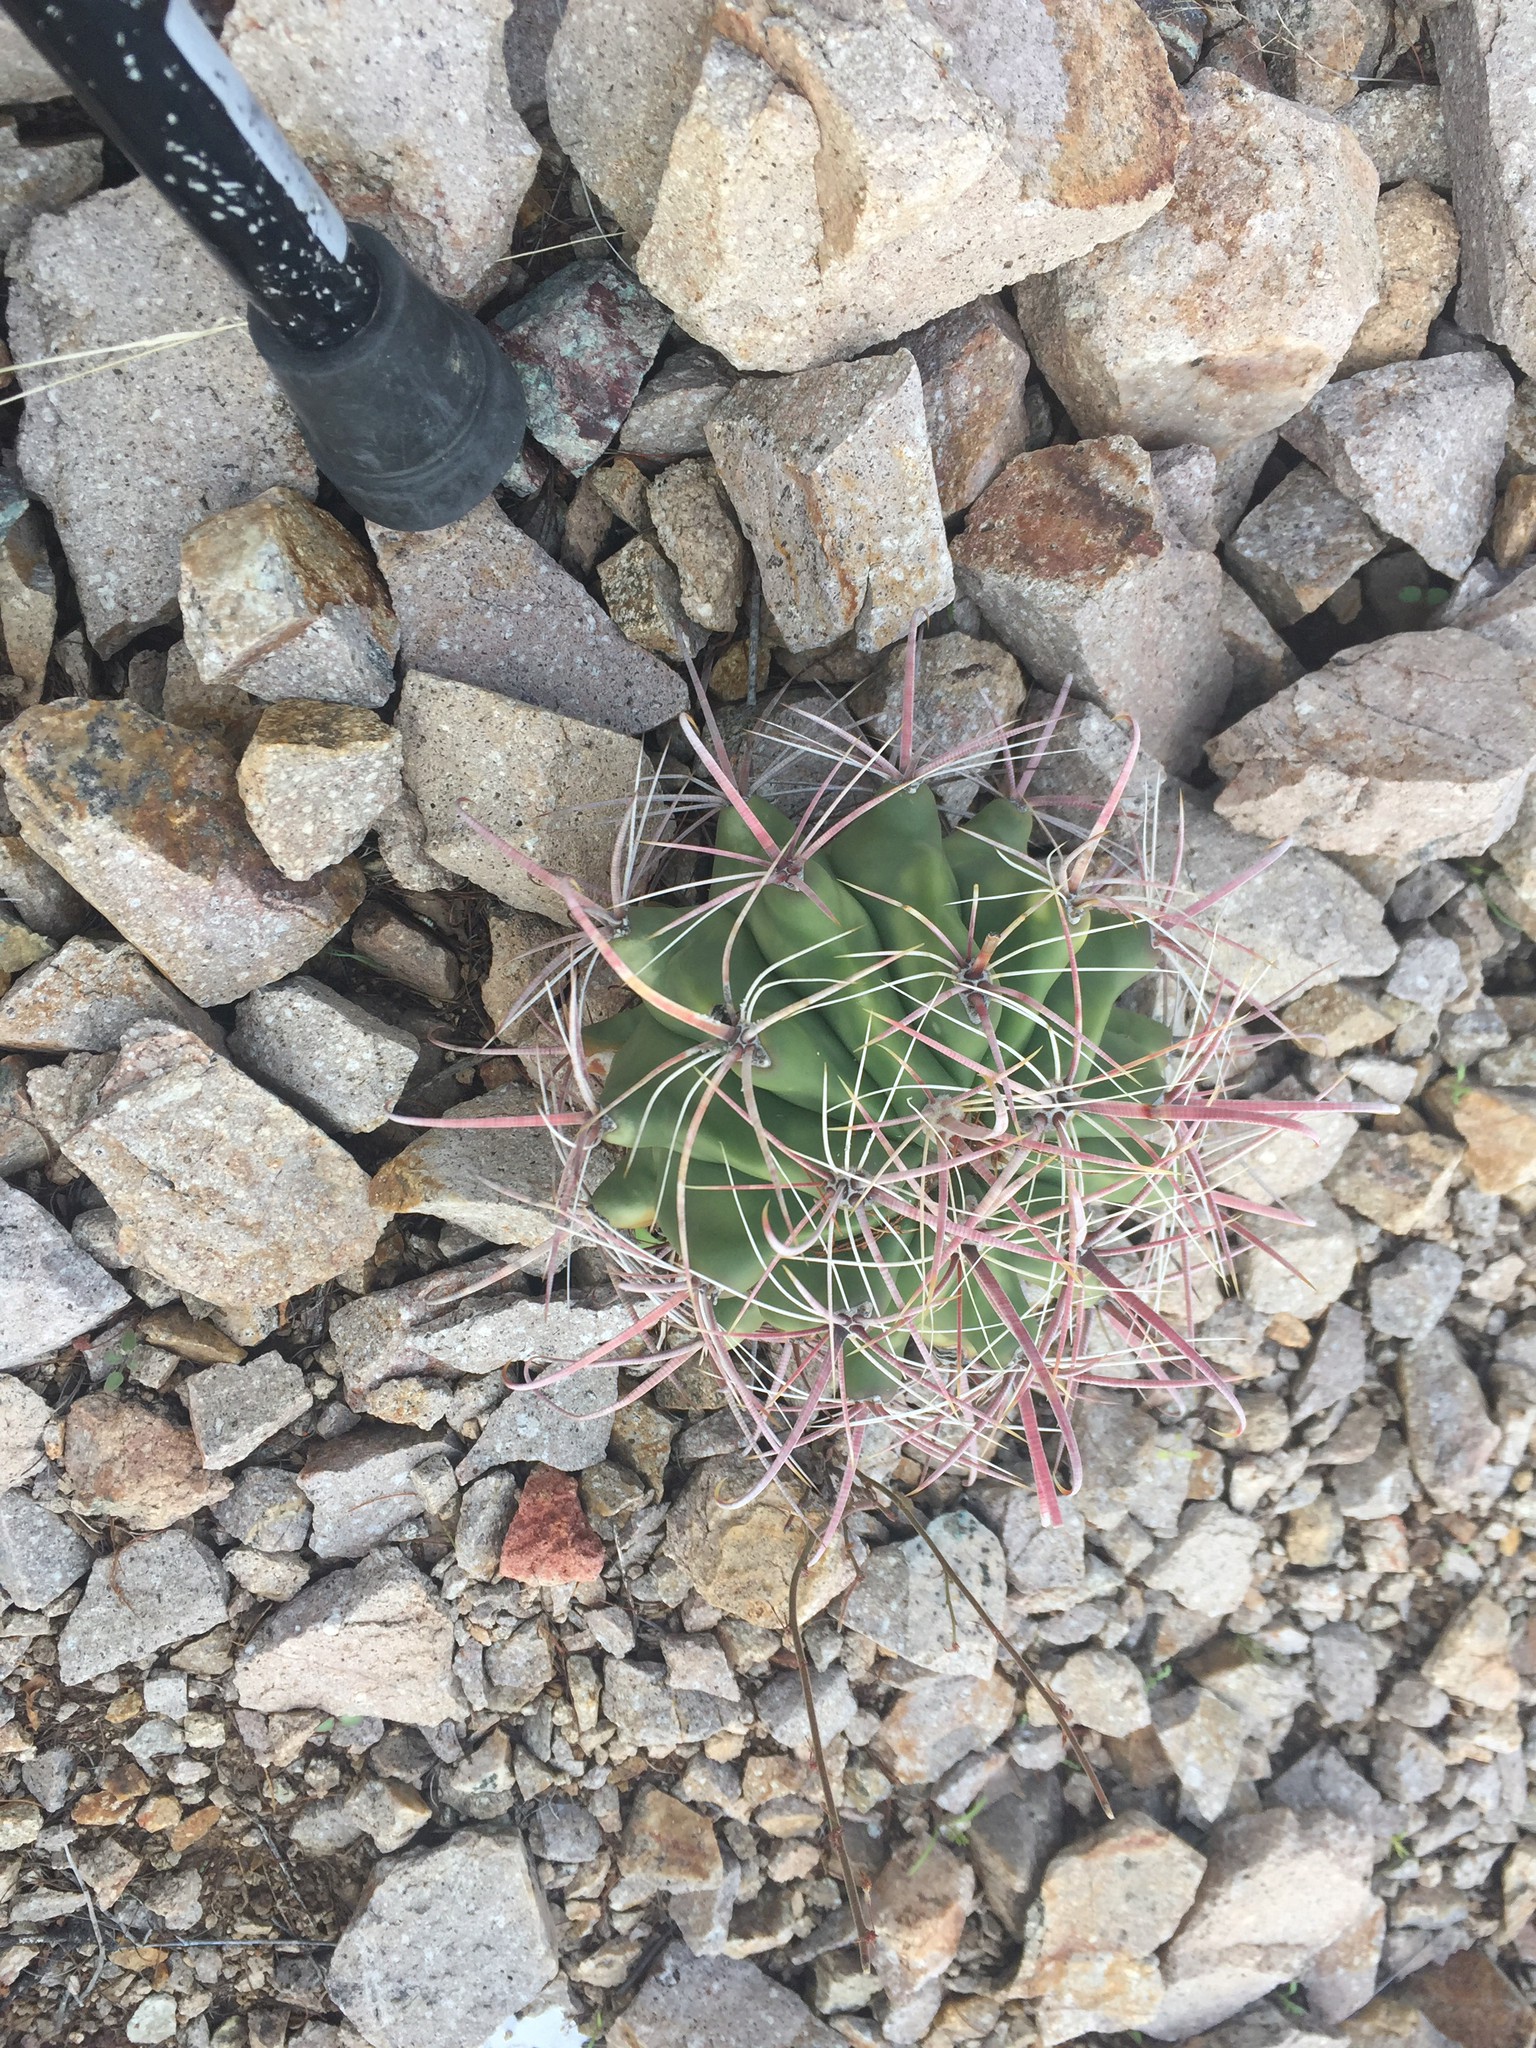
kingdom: Plantae
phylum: Tracheophyta
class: Magnoliopsida
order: Caryophyllales
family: Cactaceae
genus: Ferocactus
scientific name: Ferocactus wislizeni
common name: Candy barrel cactus
